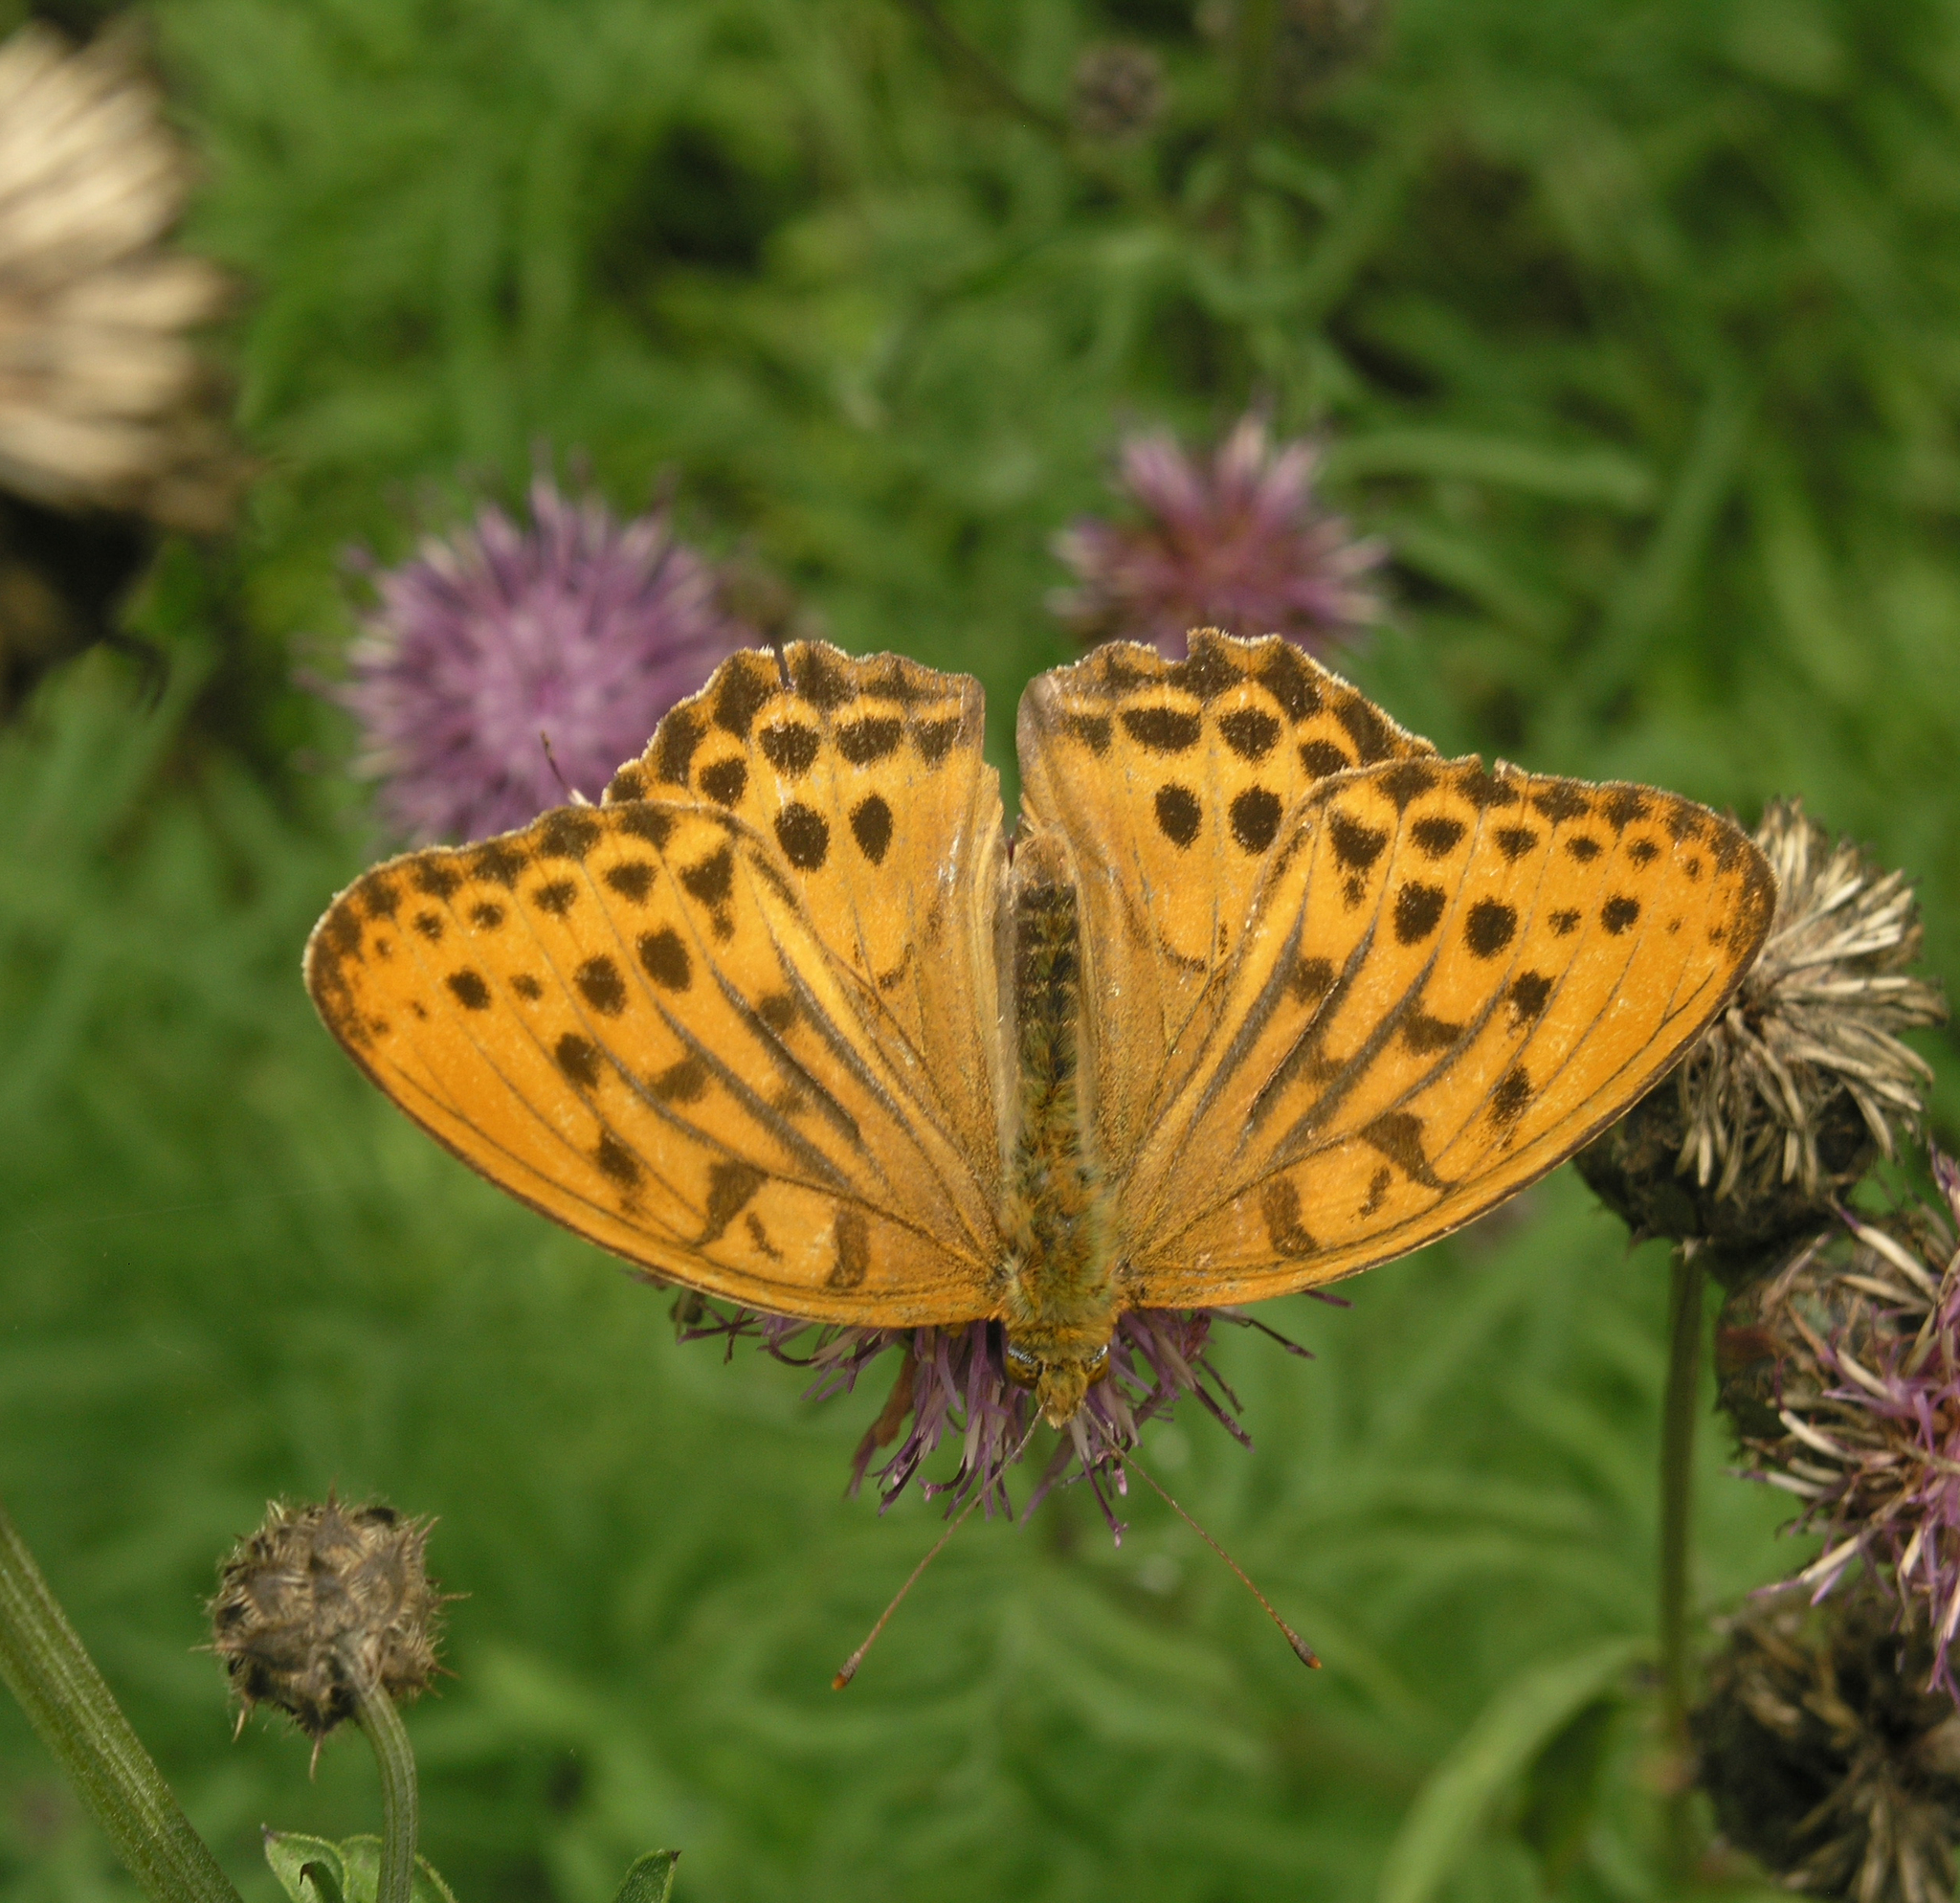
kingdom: Animalia
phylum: Arthropoda
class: Insecta
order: Lepidoptera
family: Nymphalidae
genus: Damora
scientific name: Damora sagana
